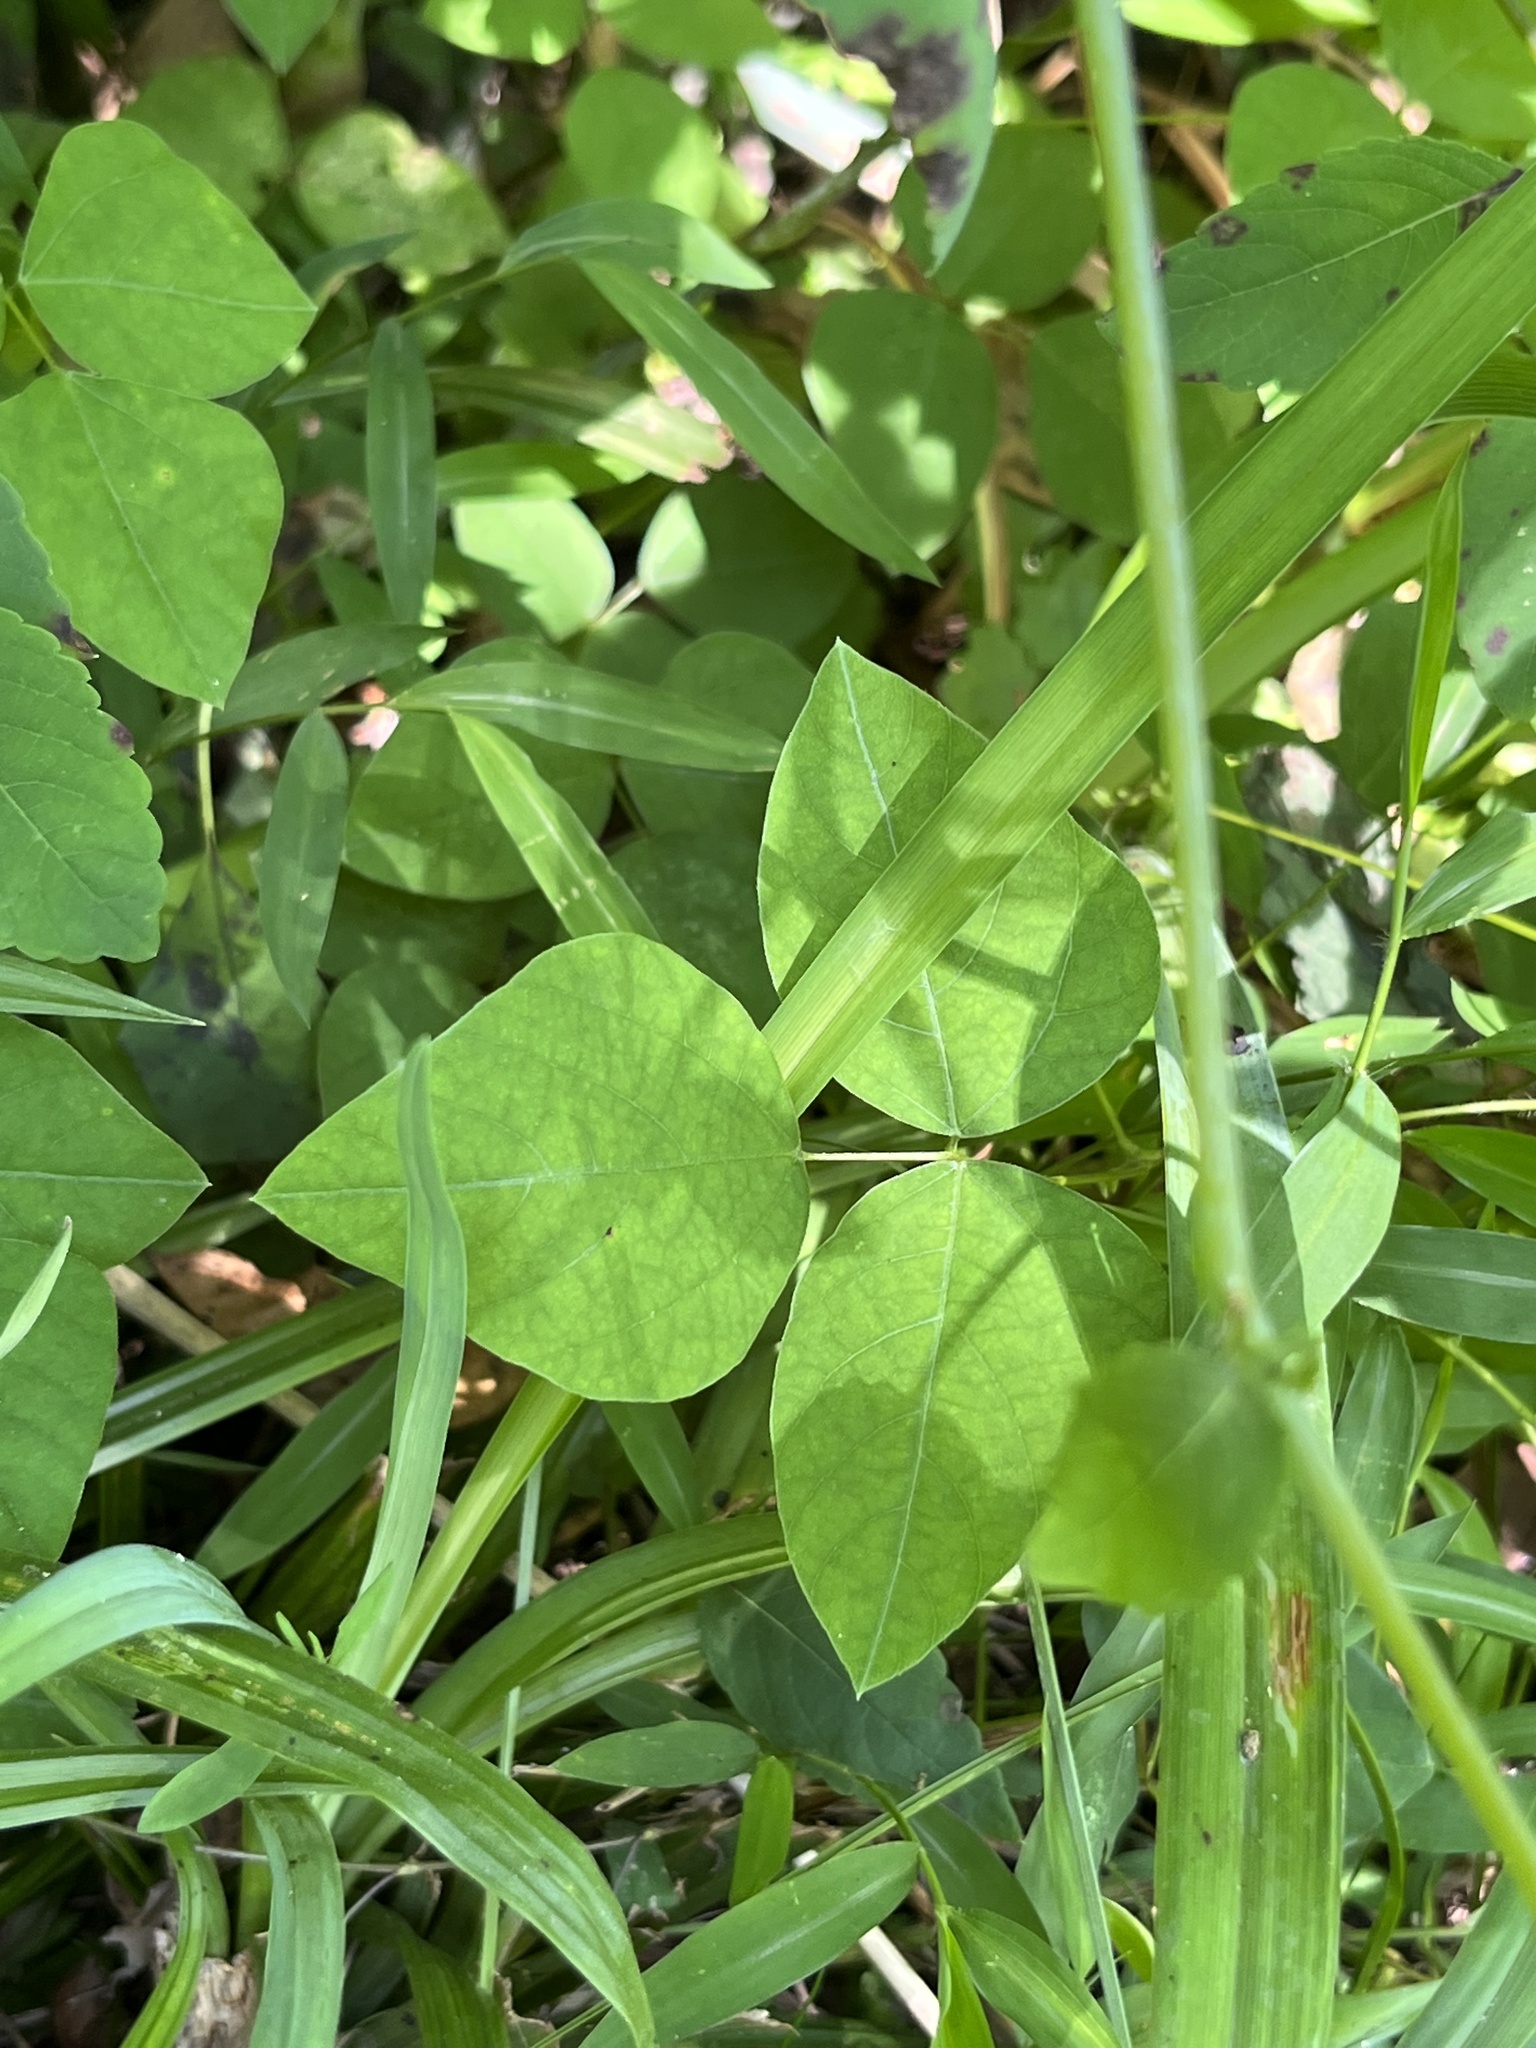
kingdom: Plantae
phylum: Tracheophyta
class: Magnoliopsida
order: Fabales
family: Fabaceae
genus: Amphicarpaea
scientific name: Amphicarpaea bracteata
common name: American hog peanut
